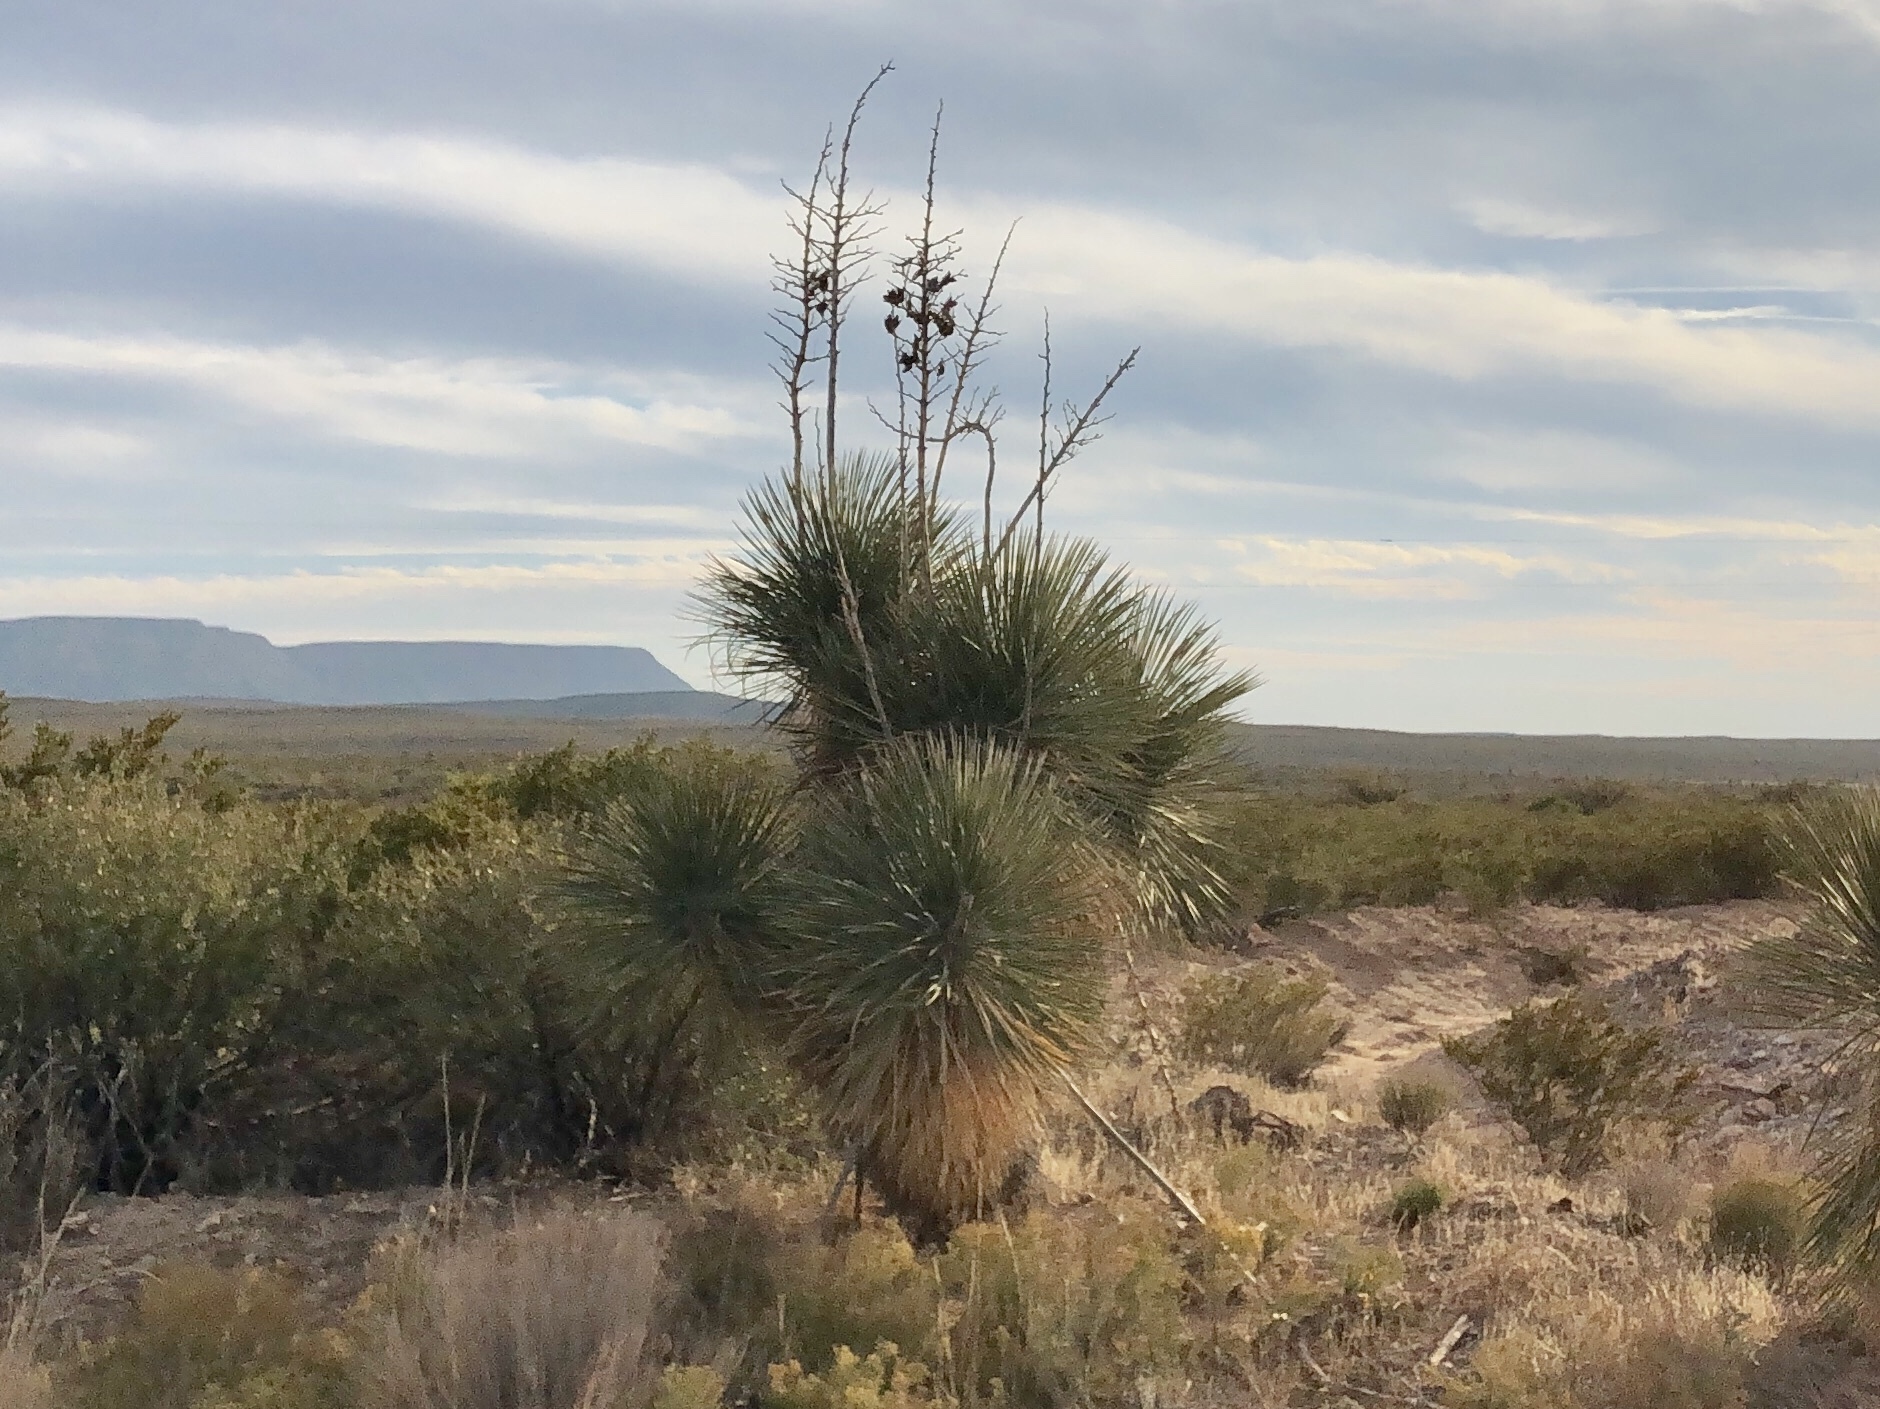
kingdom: Plantae
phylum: Tracheophyta
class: Liliopsida
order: Asparagales
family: Asparagaceae
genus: Yucca
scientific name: Yucca elata
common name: Palmella
